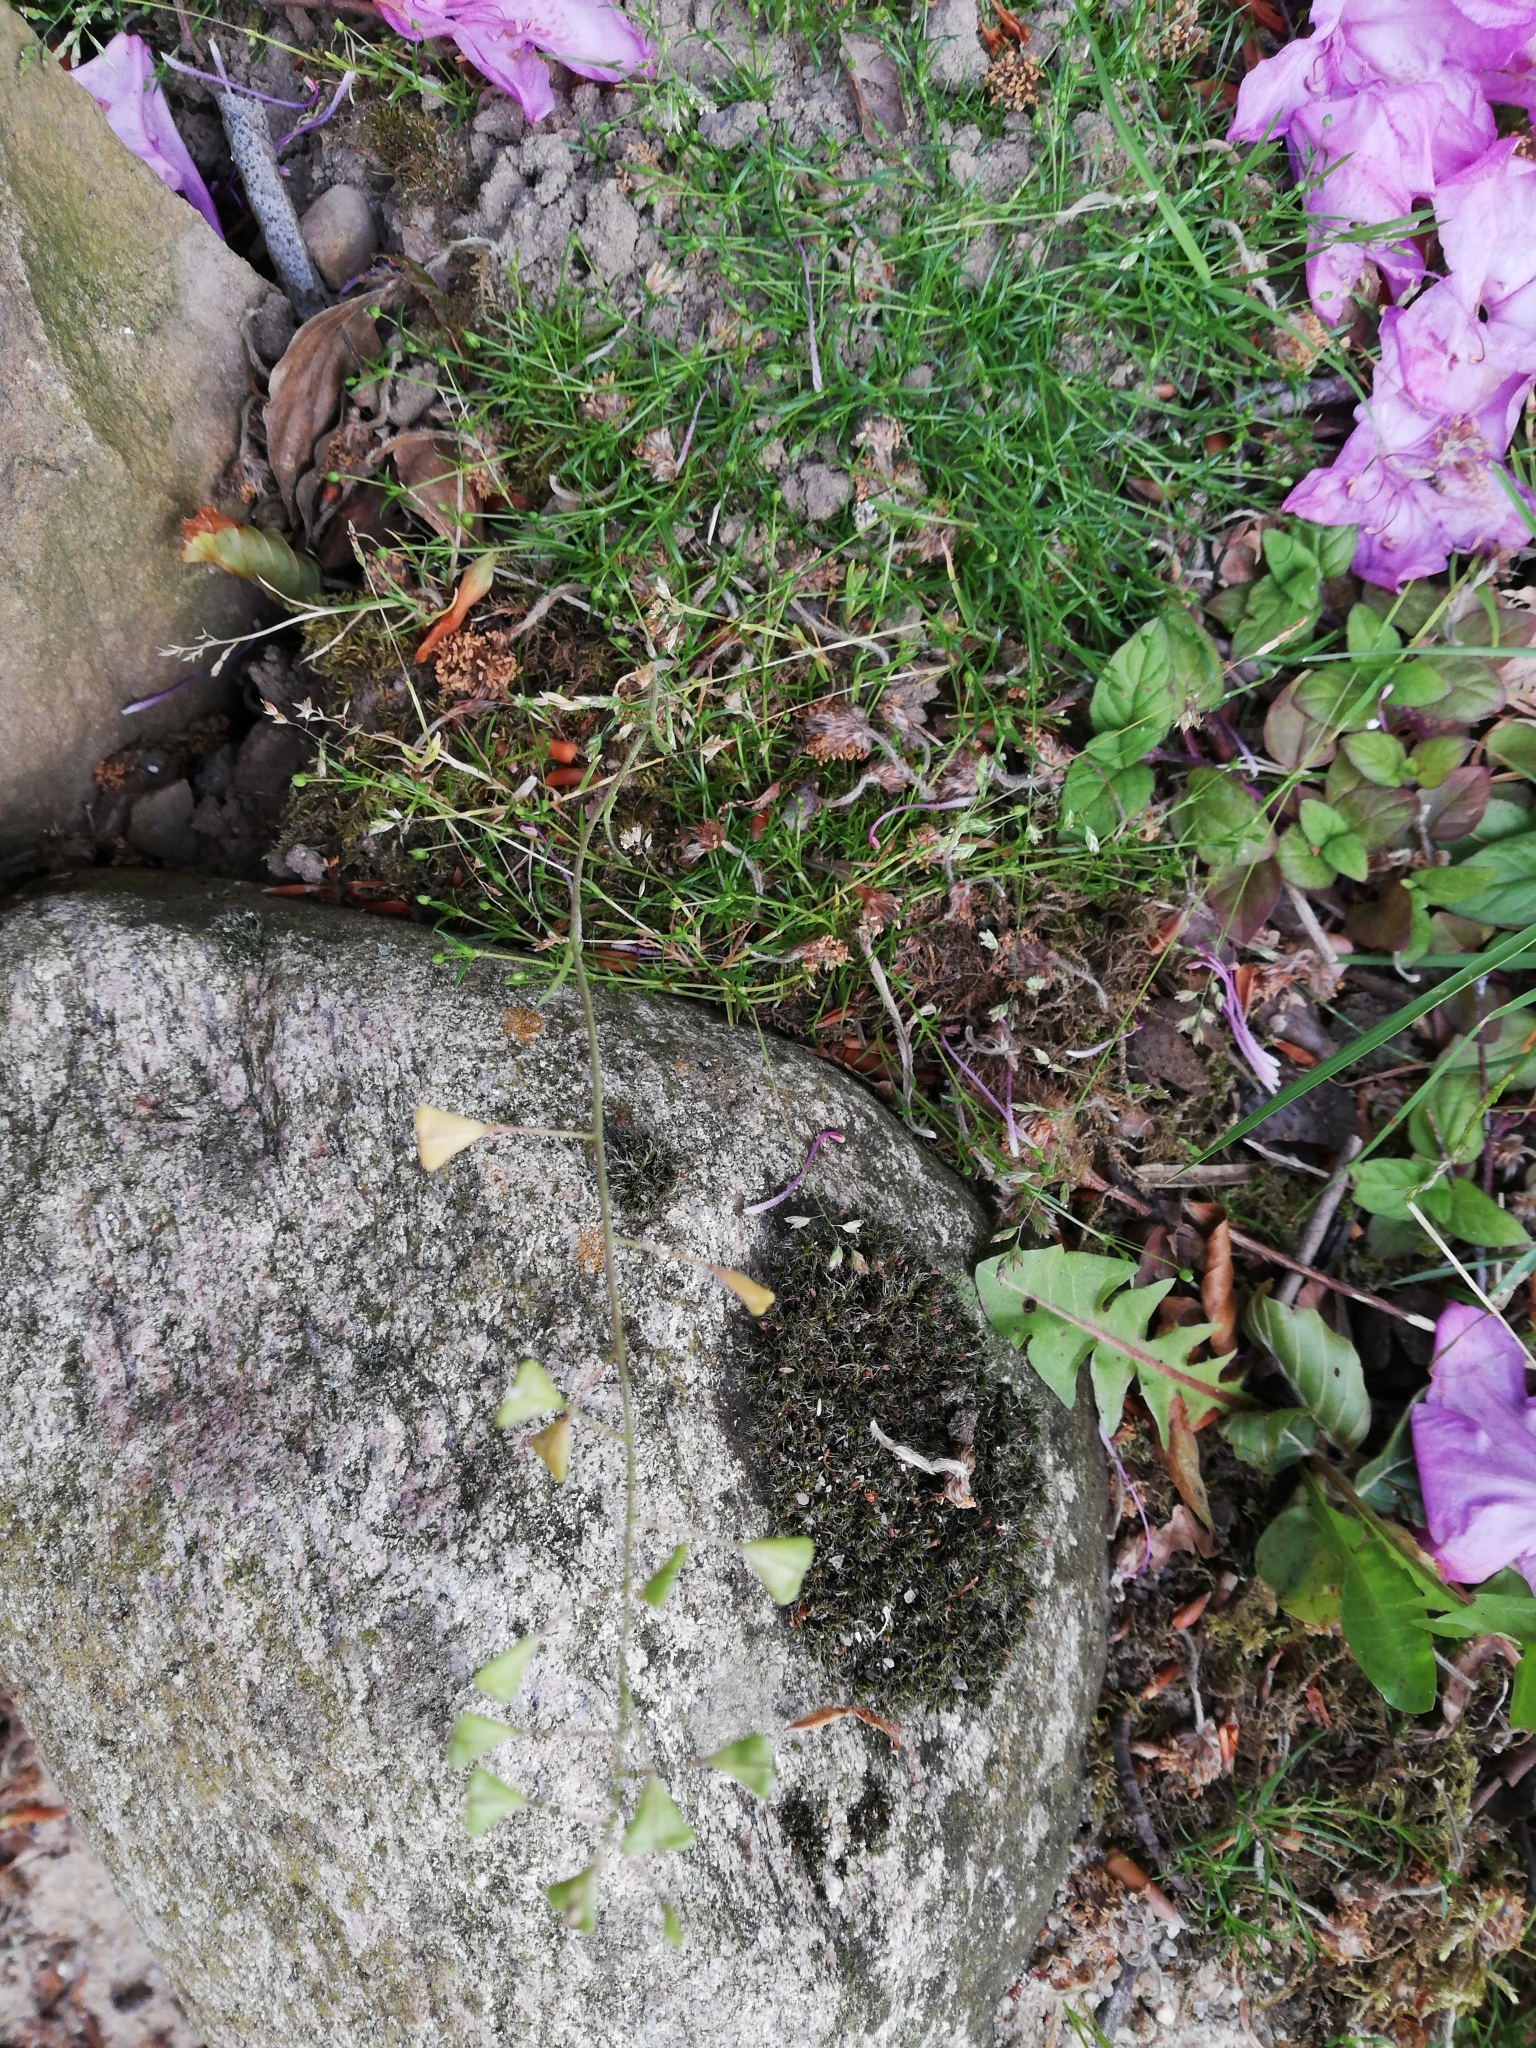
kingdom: Plantae
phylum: Tracheophyta
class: Magnoliopsida
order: Brassicales
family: Brassicaceae
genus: Capsella
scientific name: Capsella bursa-pastoris
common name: Shepherd's purse
